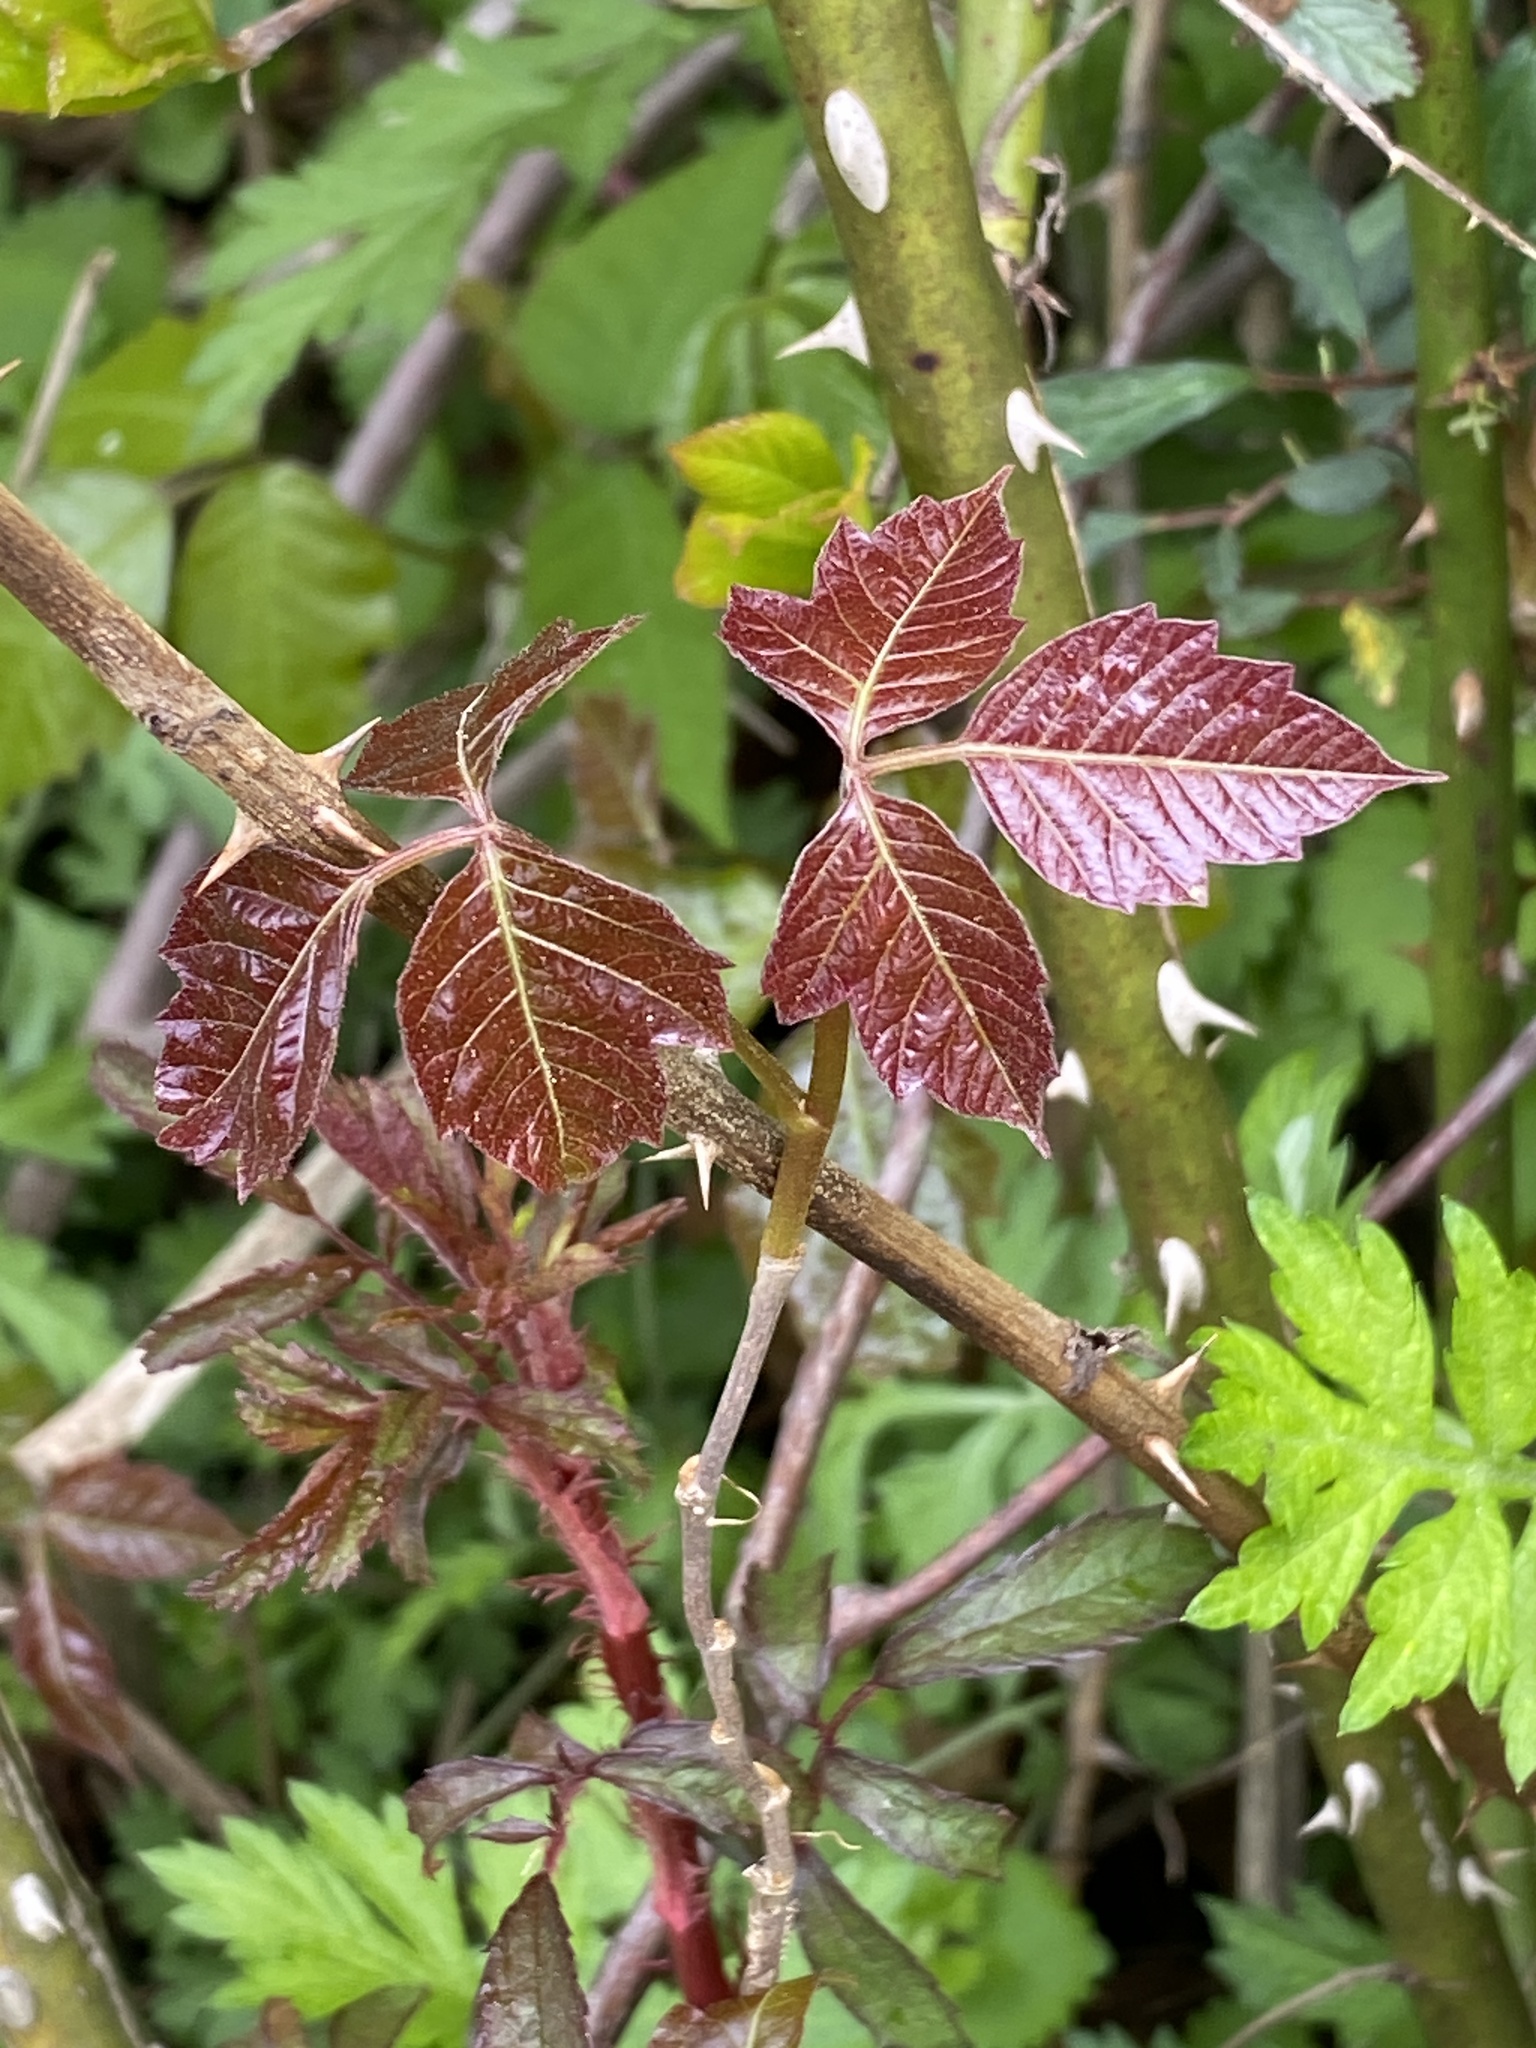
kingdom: Plantae
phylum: Tracheophyta
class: Magnoliopsida
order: Sapindales
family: Anacardiaceae
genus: Toxicodendron
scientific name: Toxicodendron radicans
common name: Poison ivy
